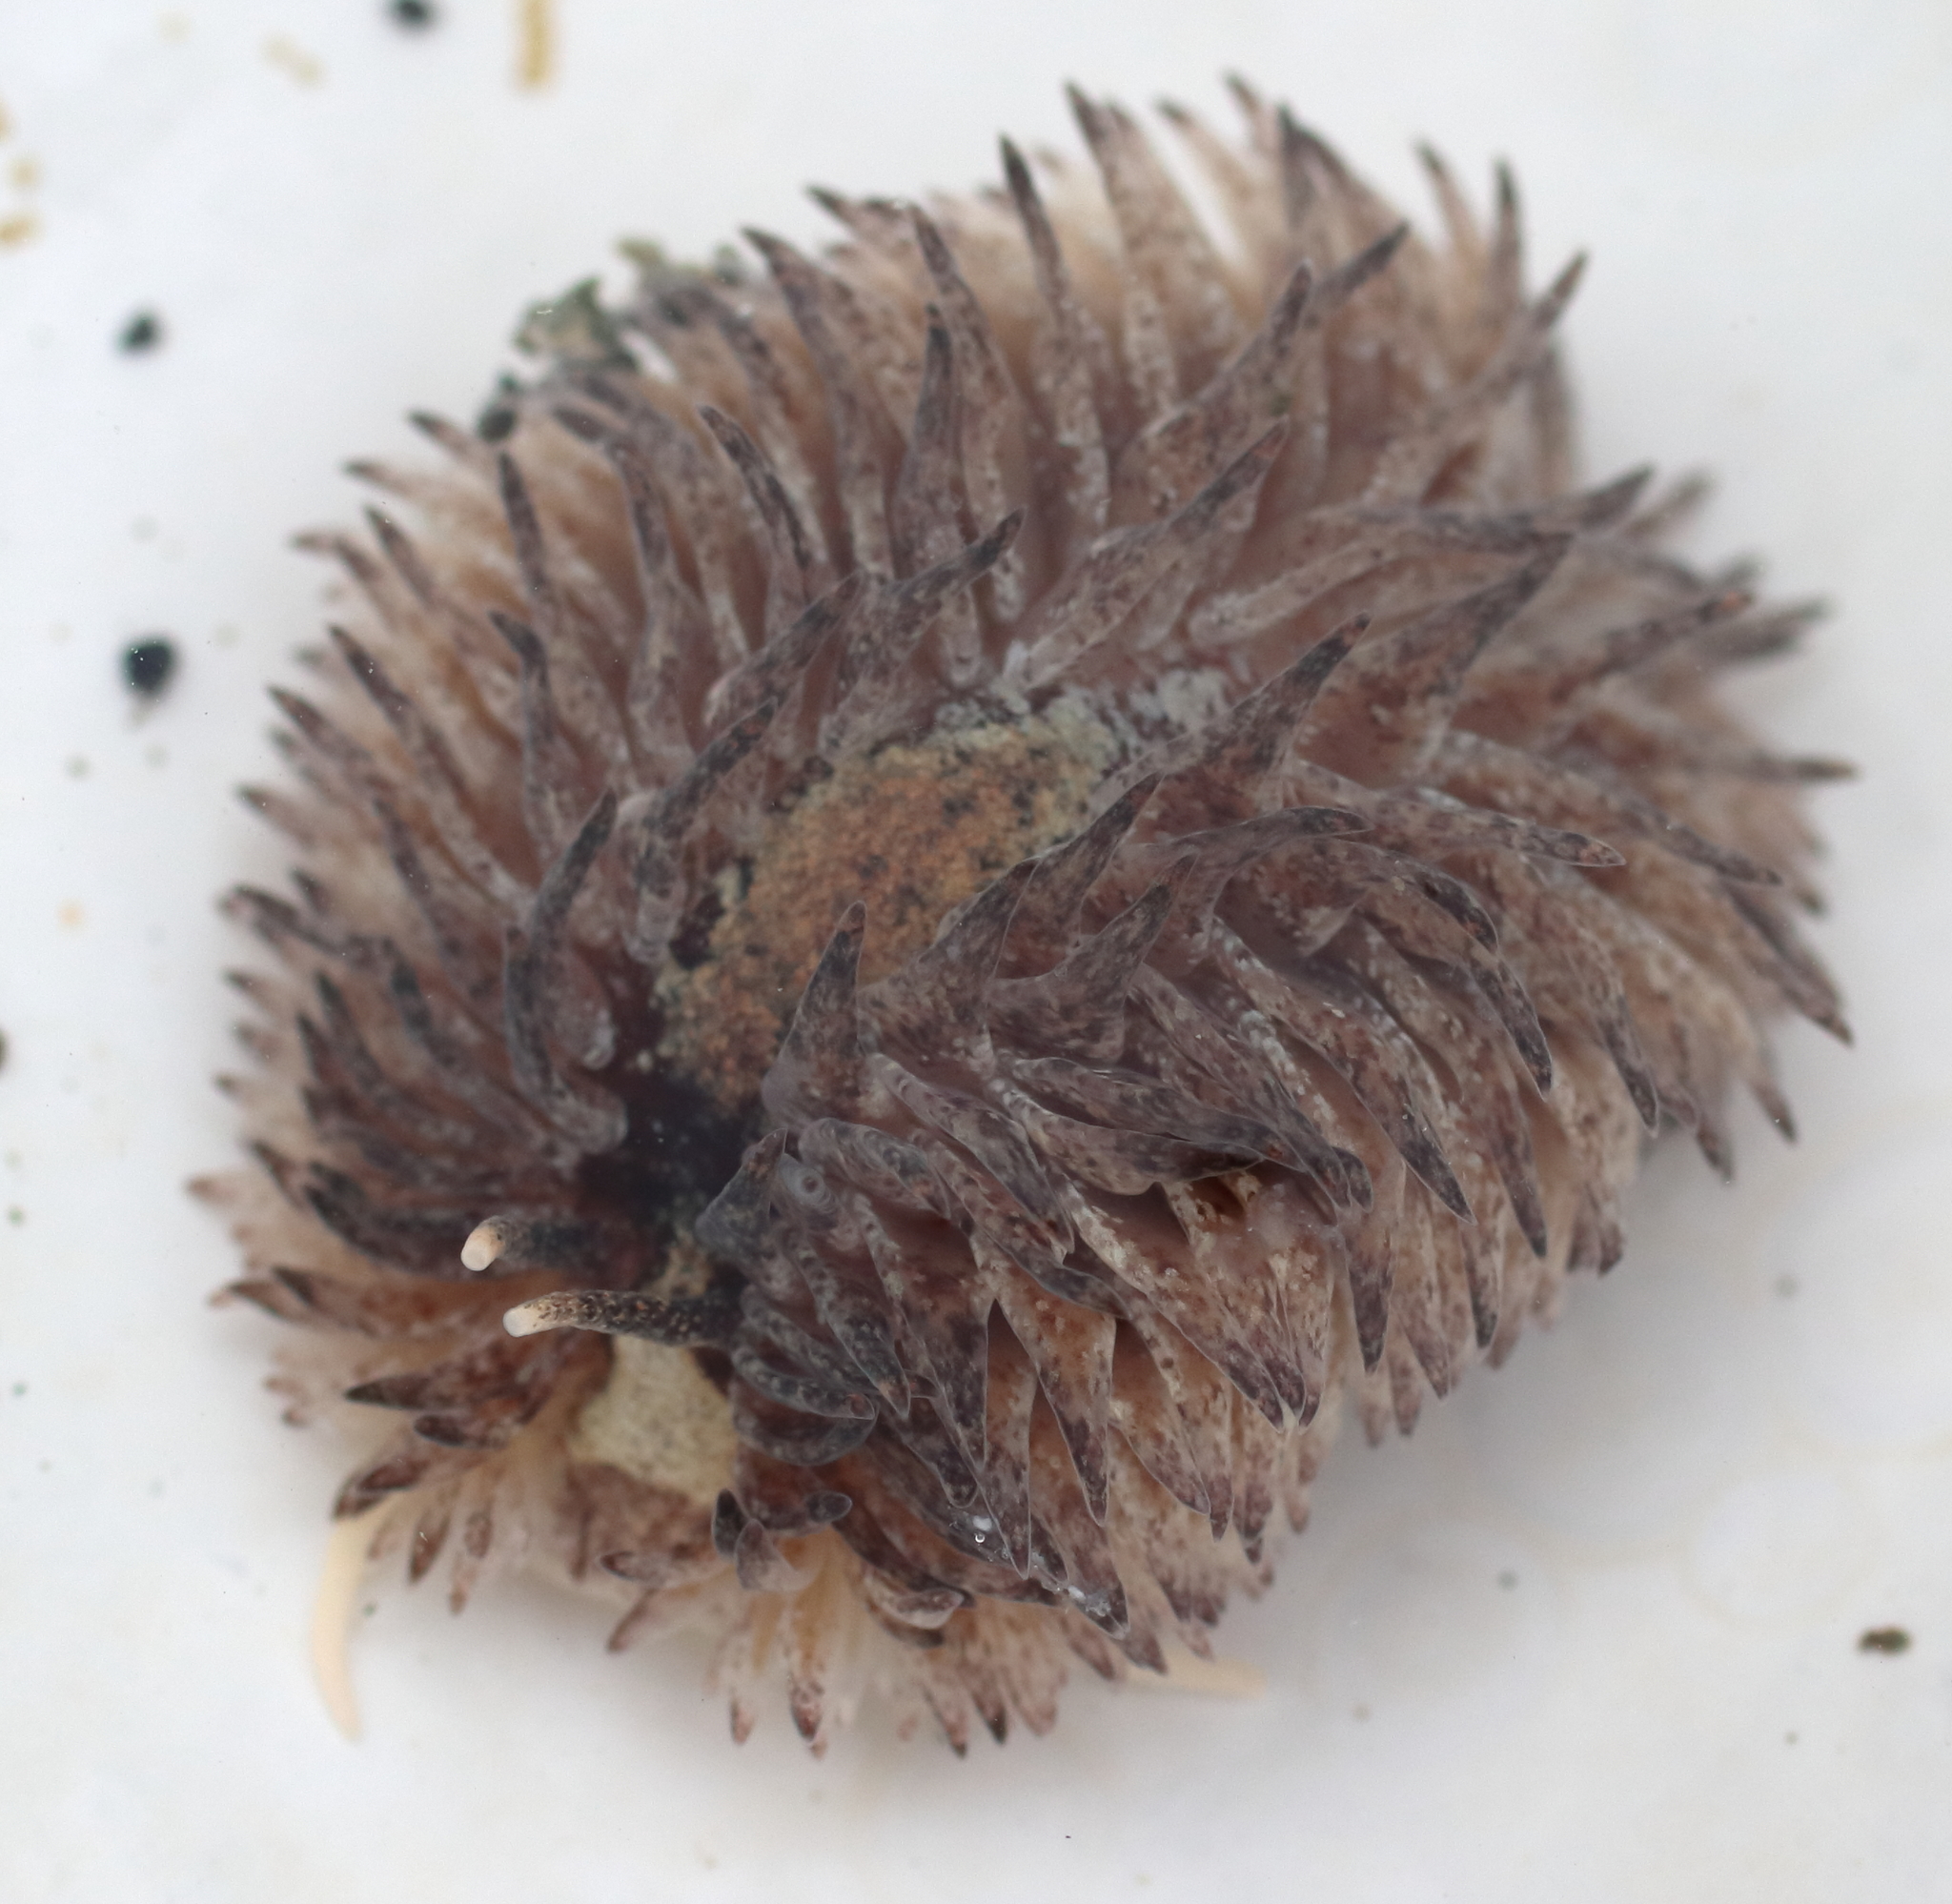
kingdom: Animalia
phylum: Mollusca
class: Gastropoda
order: Nudibranchia
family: Aeolidiidae
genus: Aeolidia
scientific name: Aeolidia loui
